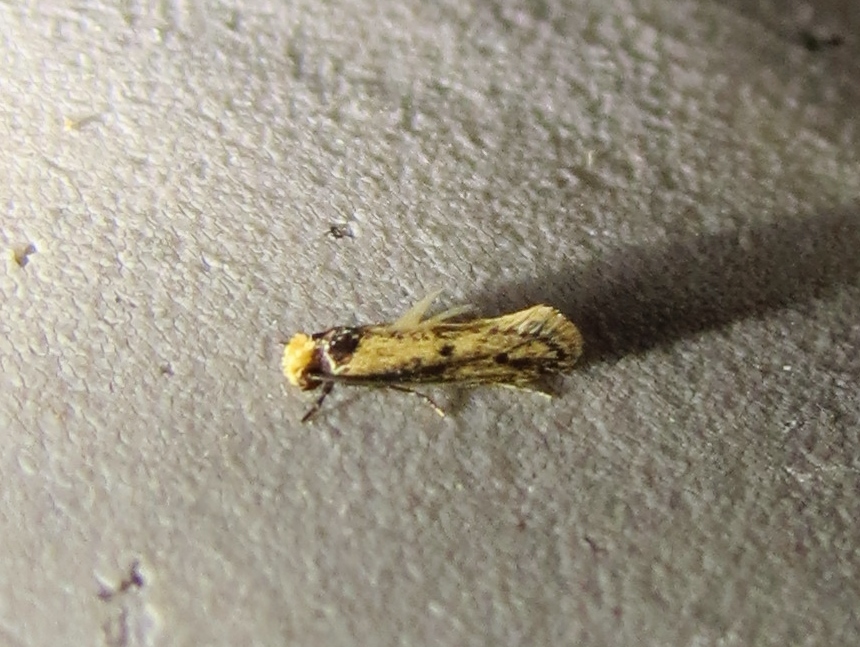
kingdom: Animalia
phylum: Arthropoda
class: Insecta
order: Lepidoptera
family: Tineidae
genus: Tinea
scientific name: Tinea apicimaculella
